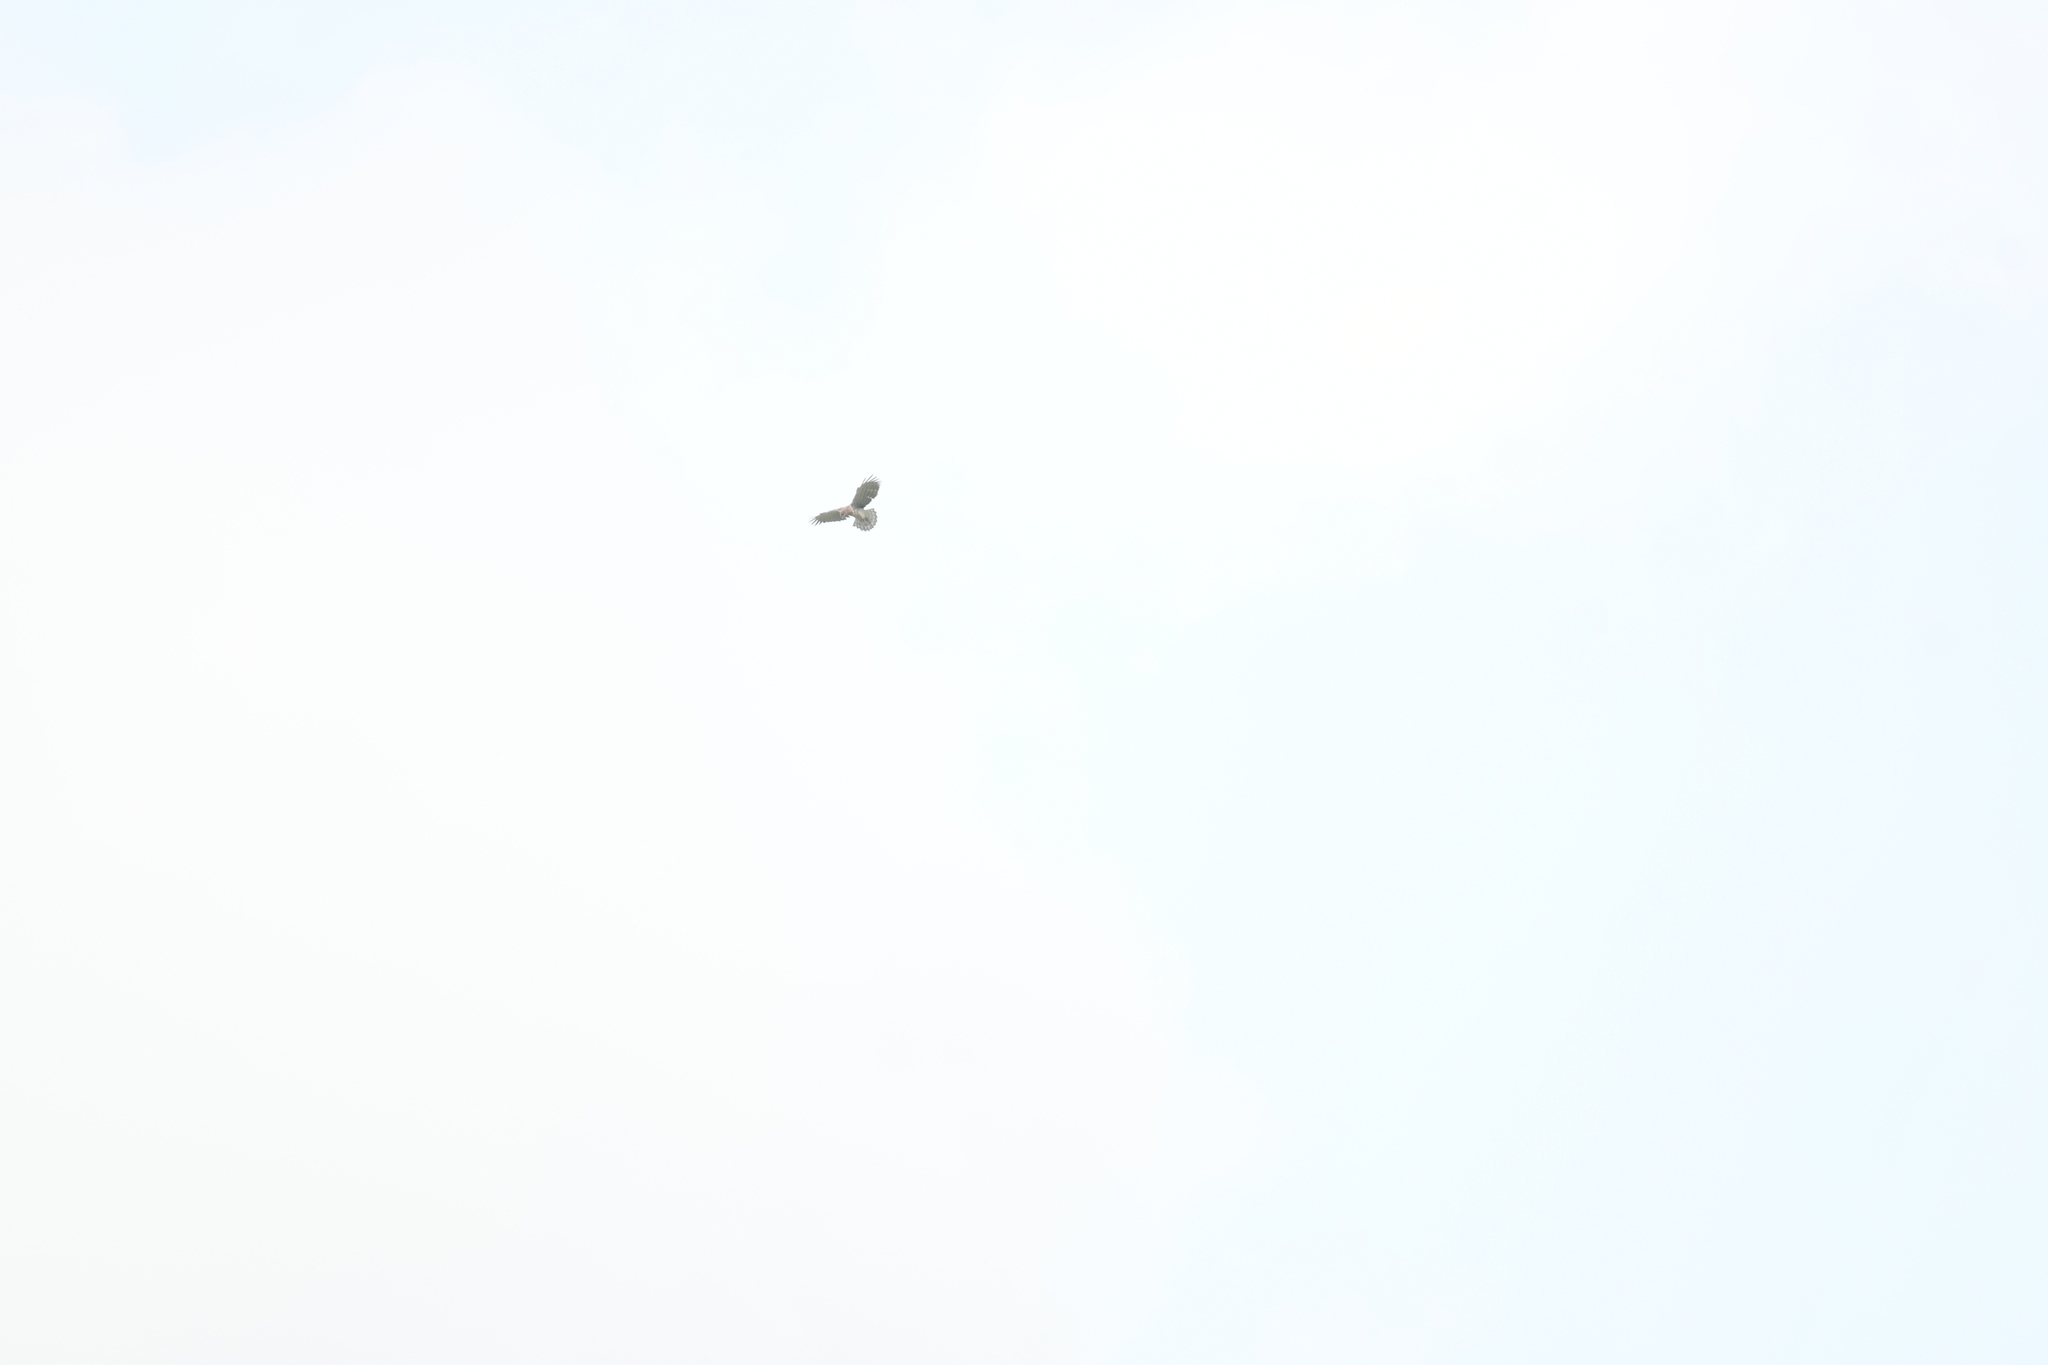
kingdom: Animalia
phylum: Chordata
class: Aves
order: Accipitriformes
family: Accipitridae
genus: Circaetus
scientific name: Circaetus gallicus
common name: Short-toed snake eagle
